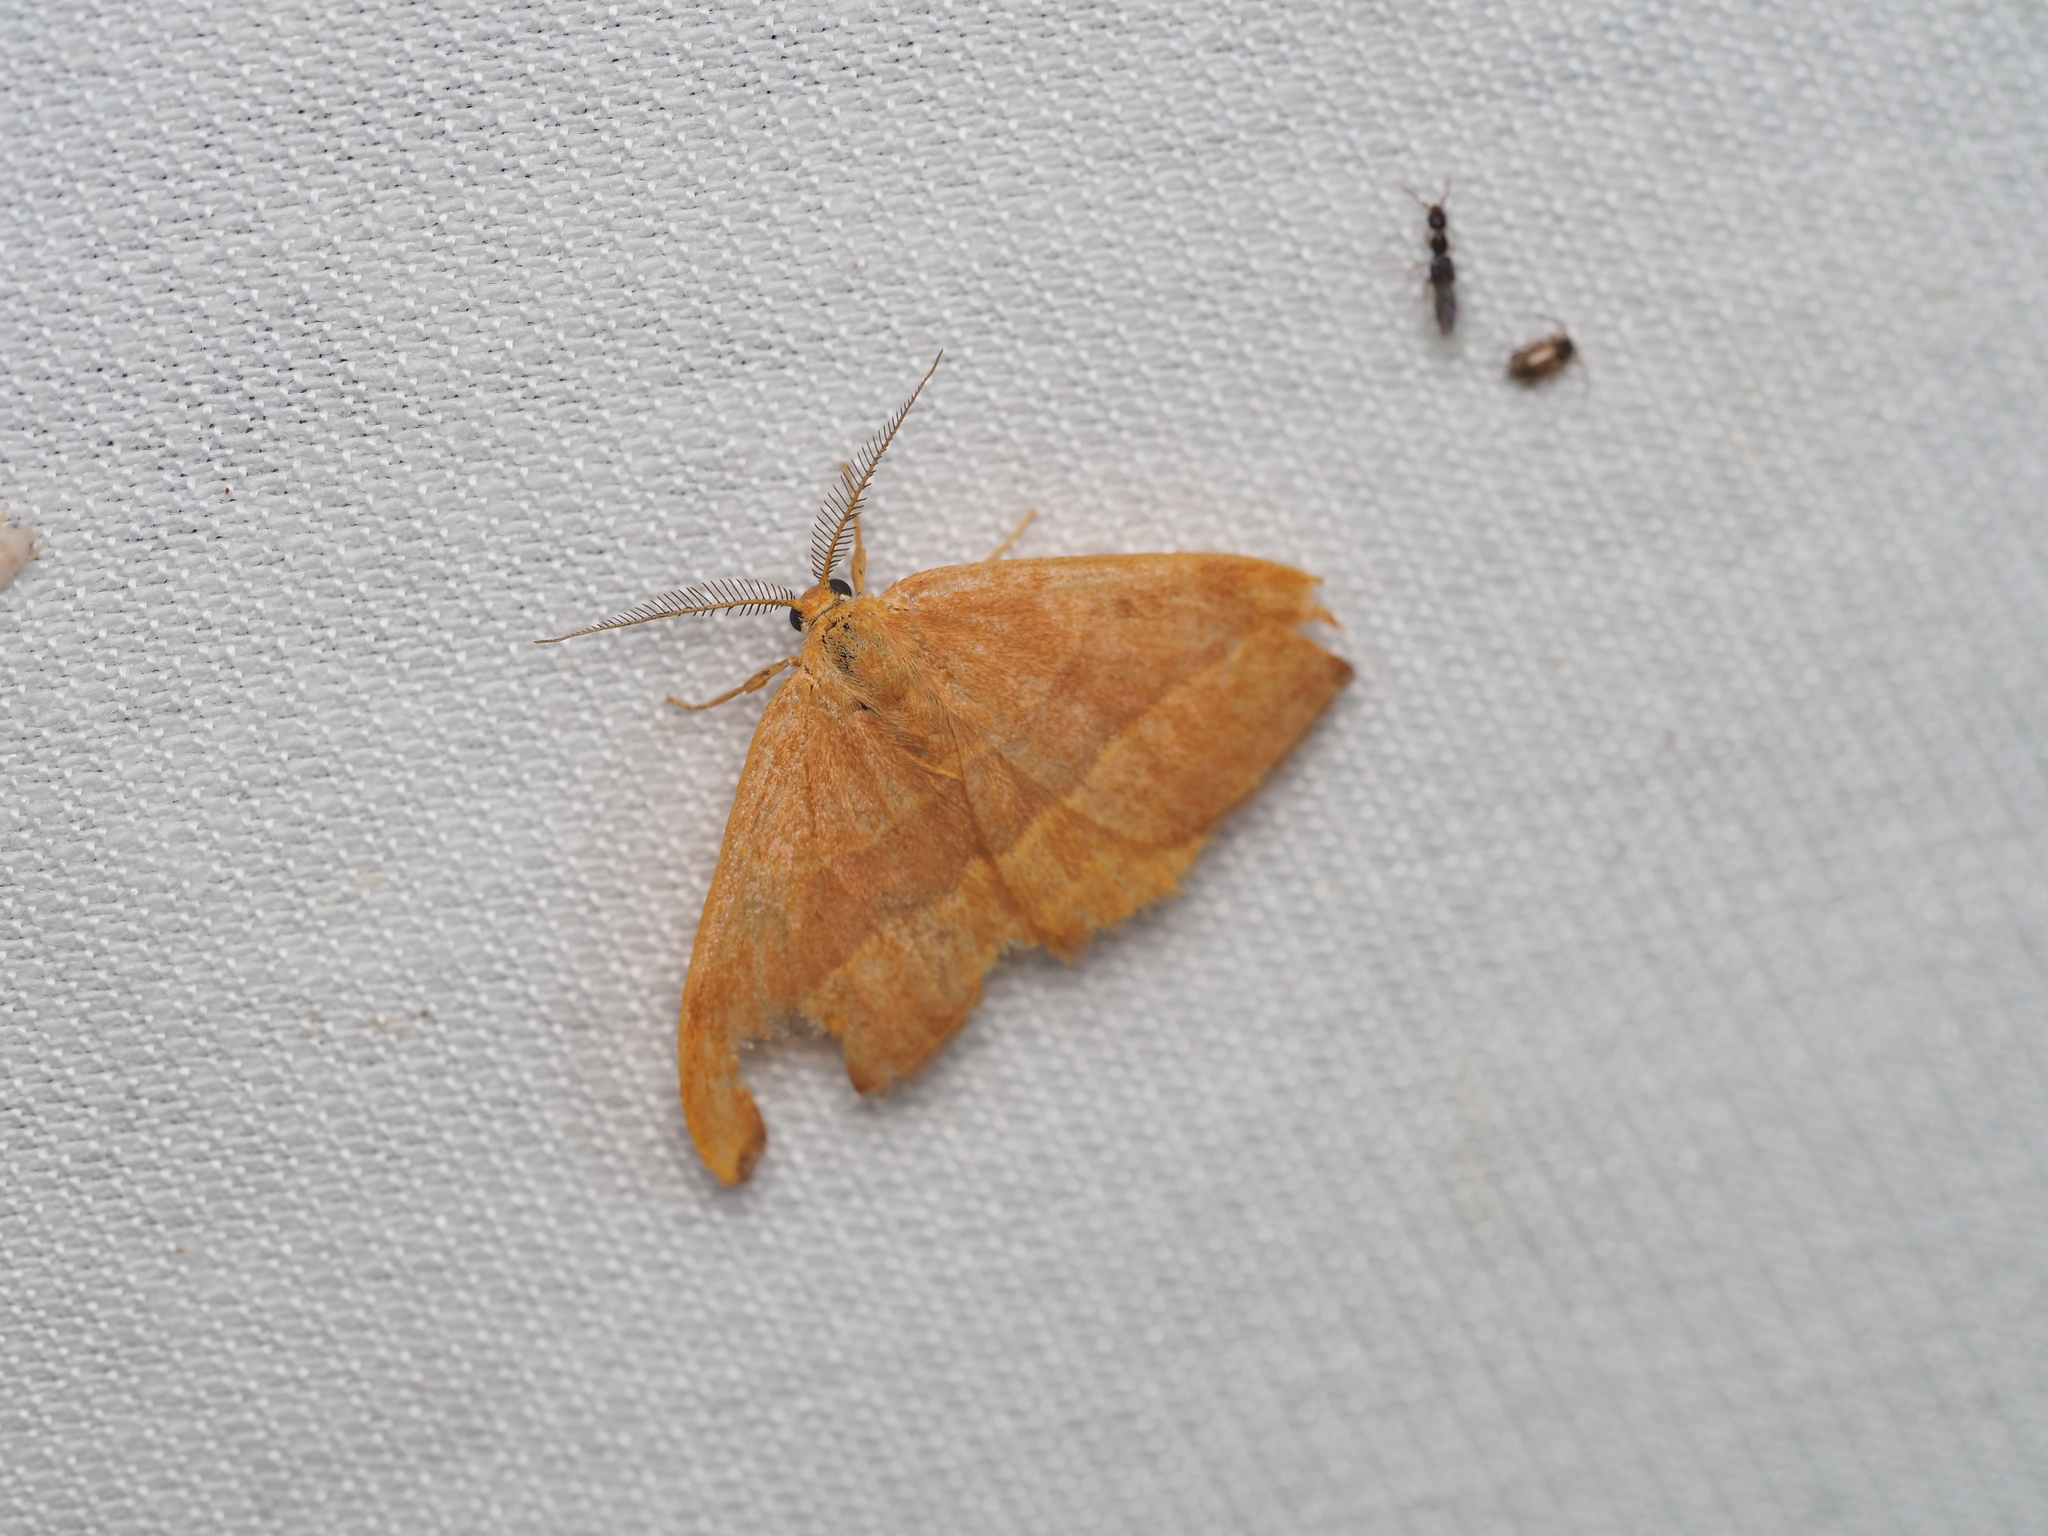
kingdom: Animalia
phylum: Arthropoda
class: Insecta
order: Lepidoptera
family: Drepanidae
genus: Watsonalla
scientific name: Watsonalla cultraria
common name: Barred hook-tip
